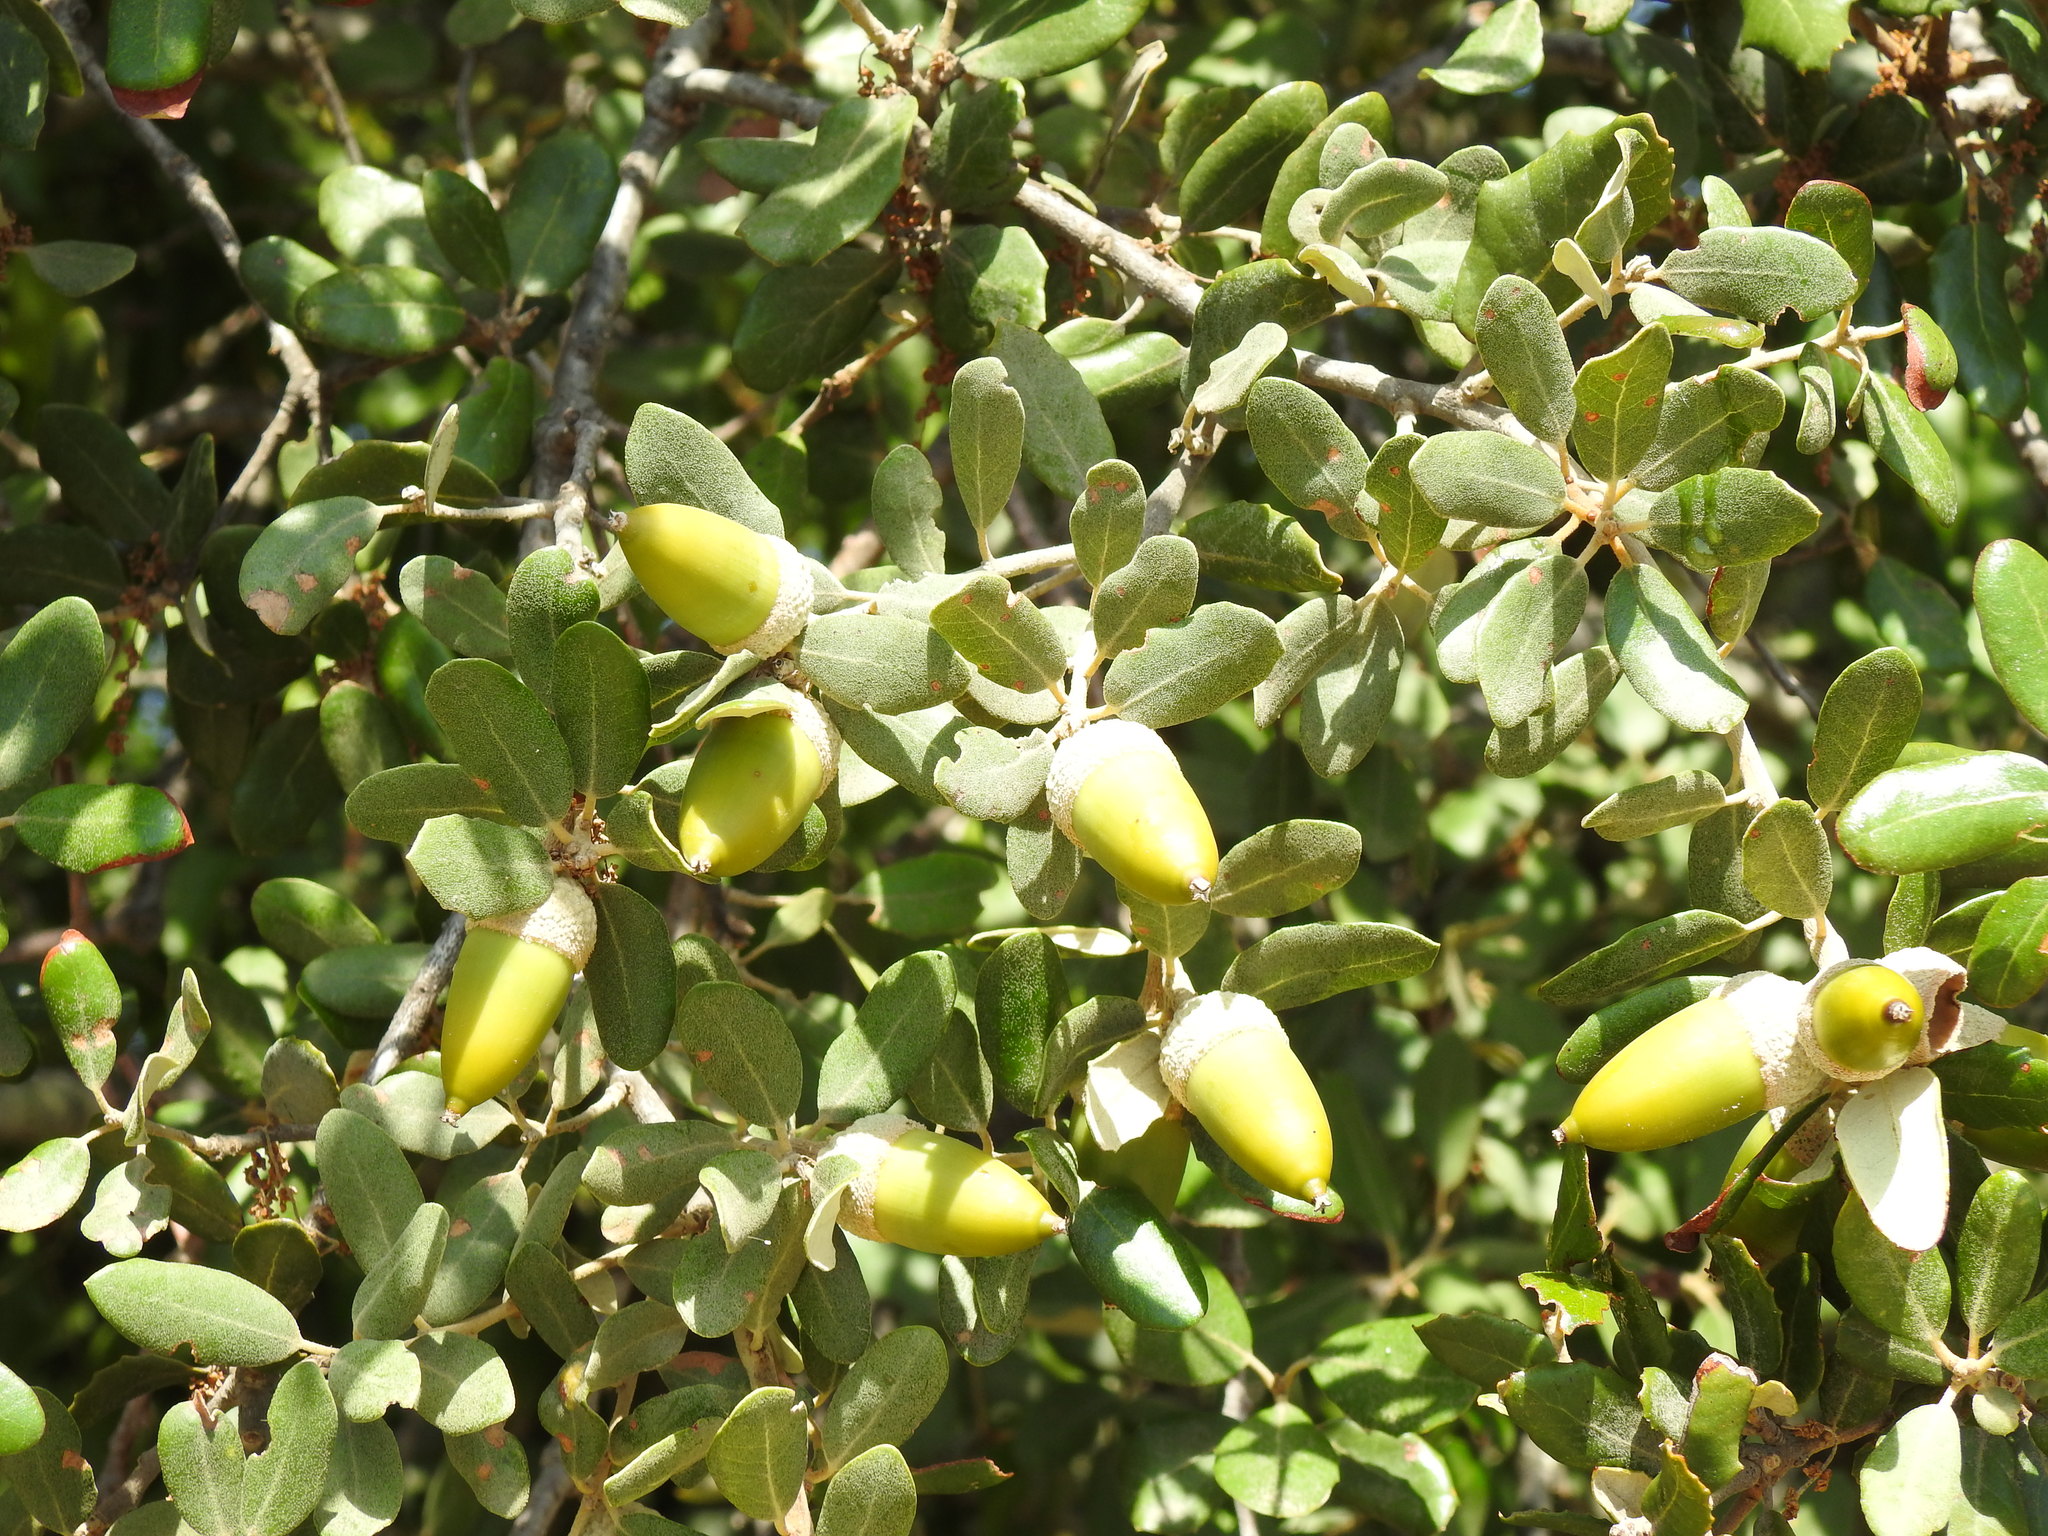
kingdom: Plantae
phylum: Tracheophyta
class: Magnoliopsida
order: Fagales
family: Fagaceae
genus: Quercus
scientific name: Quercus rotundifolia
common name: Holm oak
